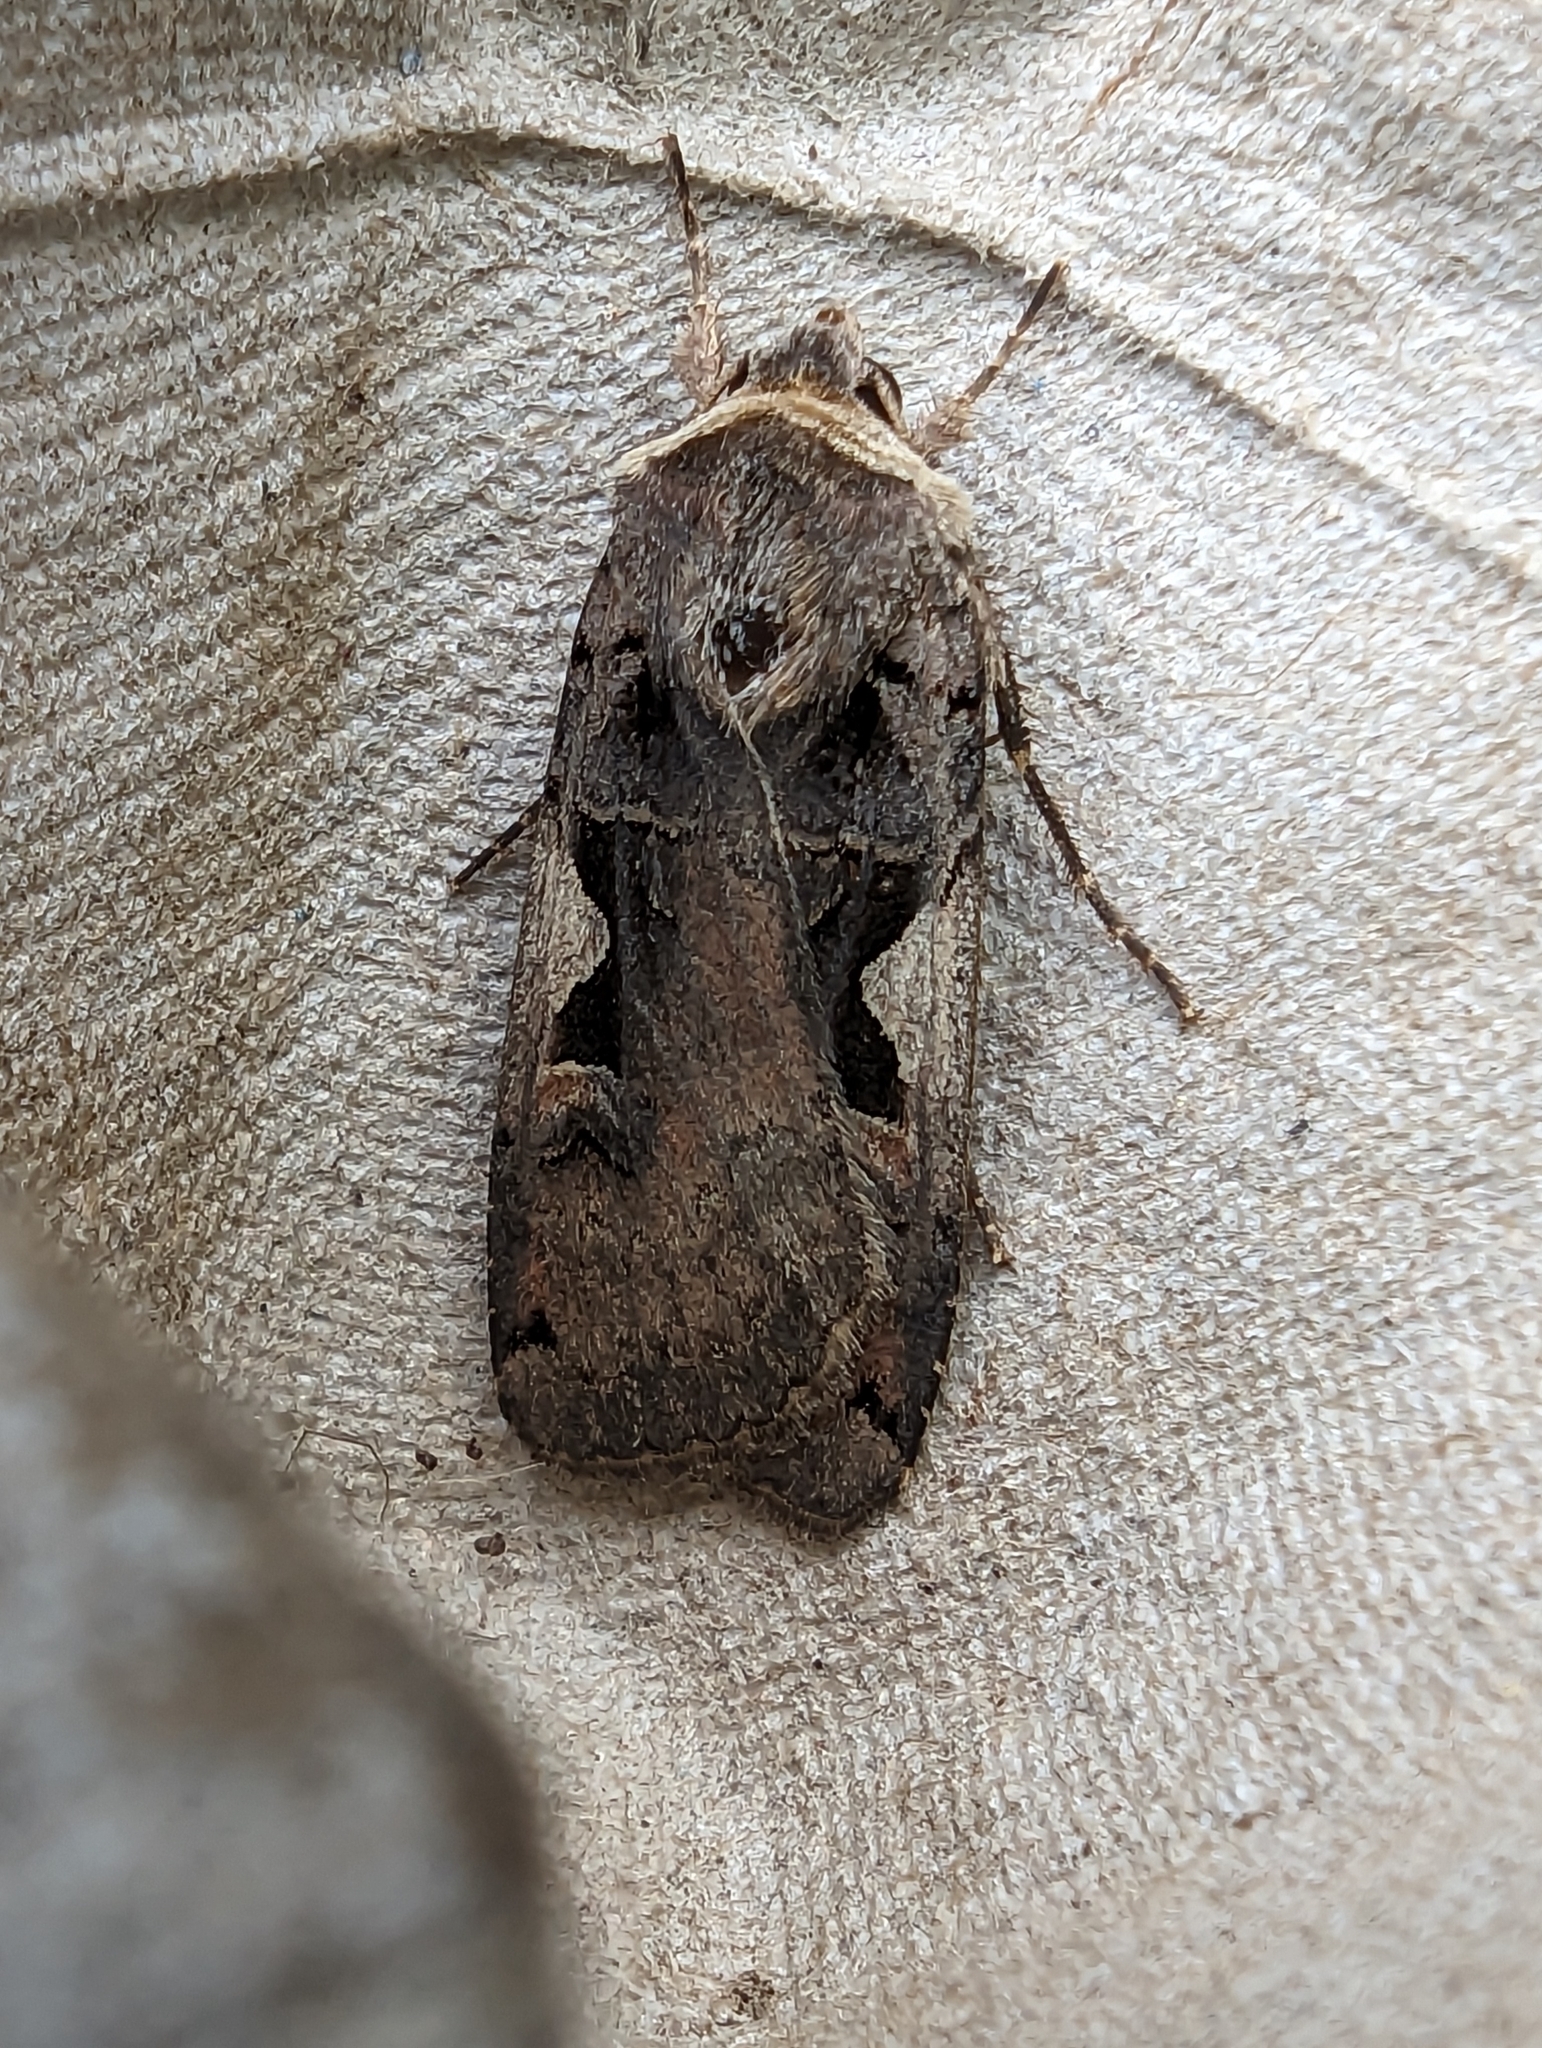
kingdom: Animalia
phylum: Arthropoda
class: Insecta
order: Lepidoptera
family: Noctuidae
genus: Xestia
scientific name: Xestia c-nigrum
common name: Setaceous hebrew character
